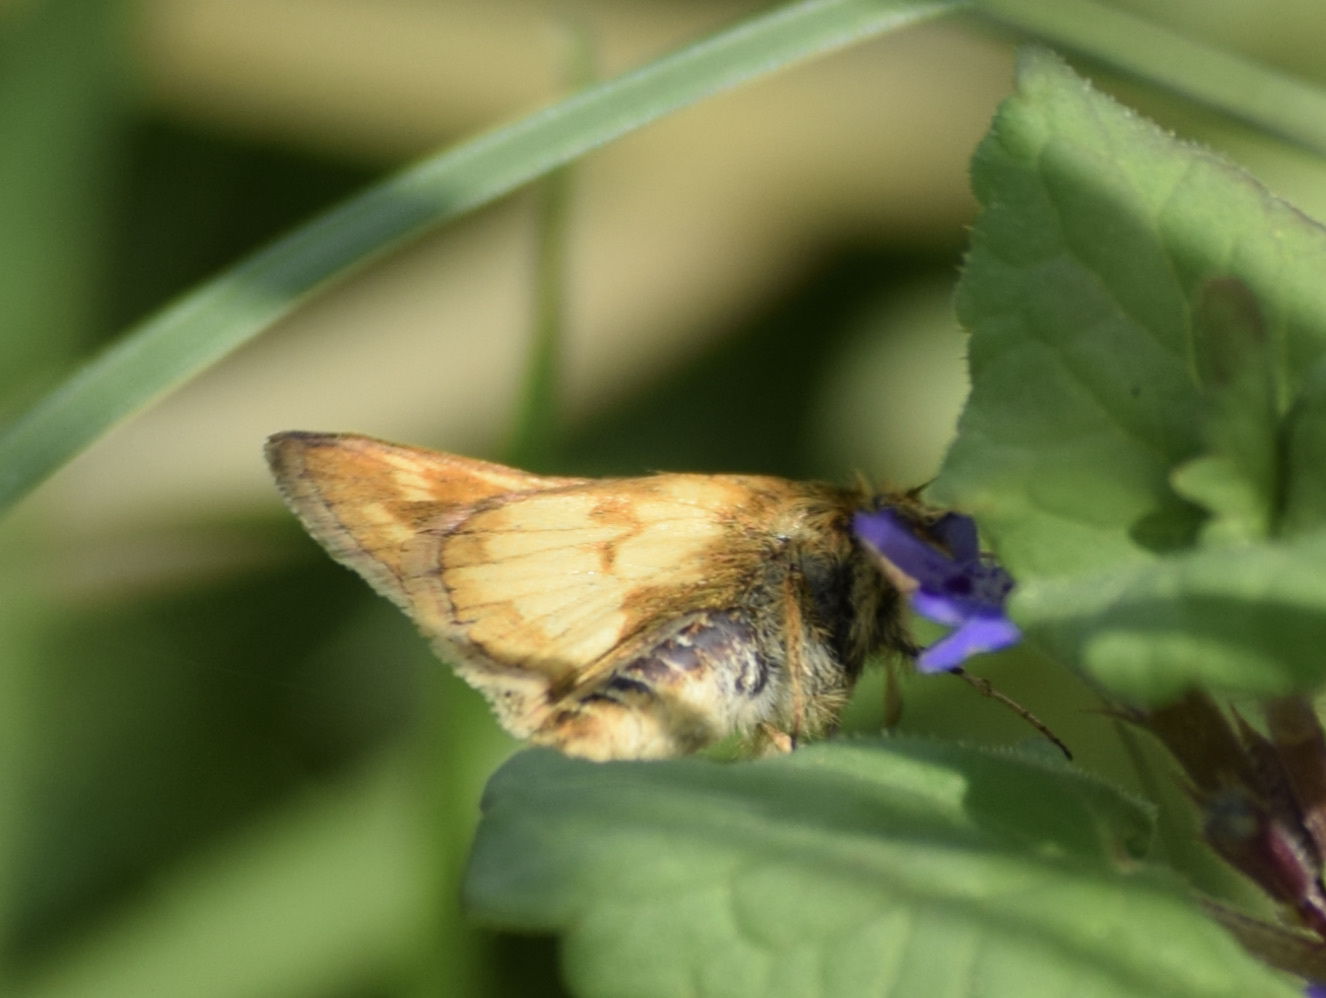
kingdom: Animalia
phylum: Arthropoda
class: Insecta
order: Lepidoptera
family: Hesperiidae
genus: Polites
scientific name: Polites coras
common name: Peck's skipper
